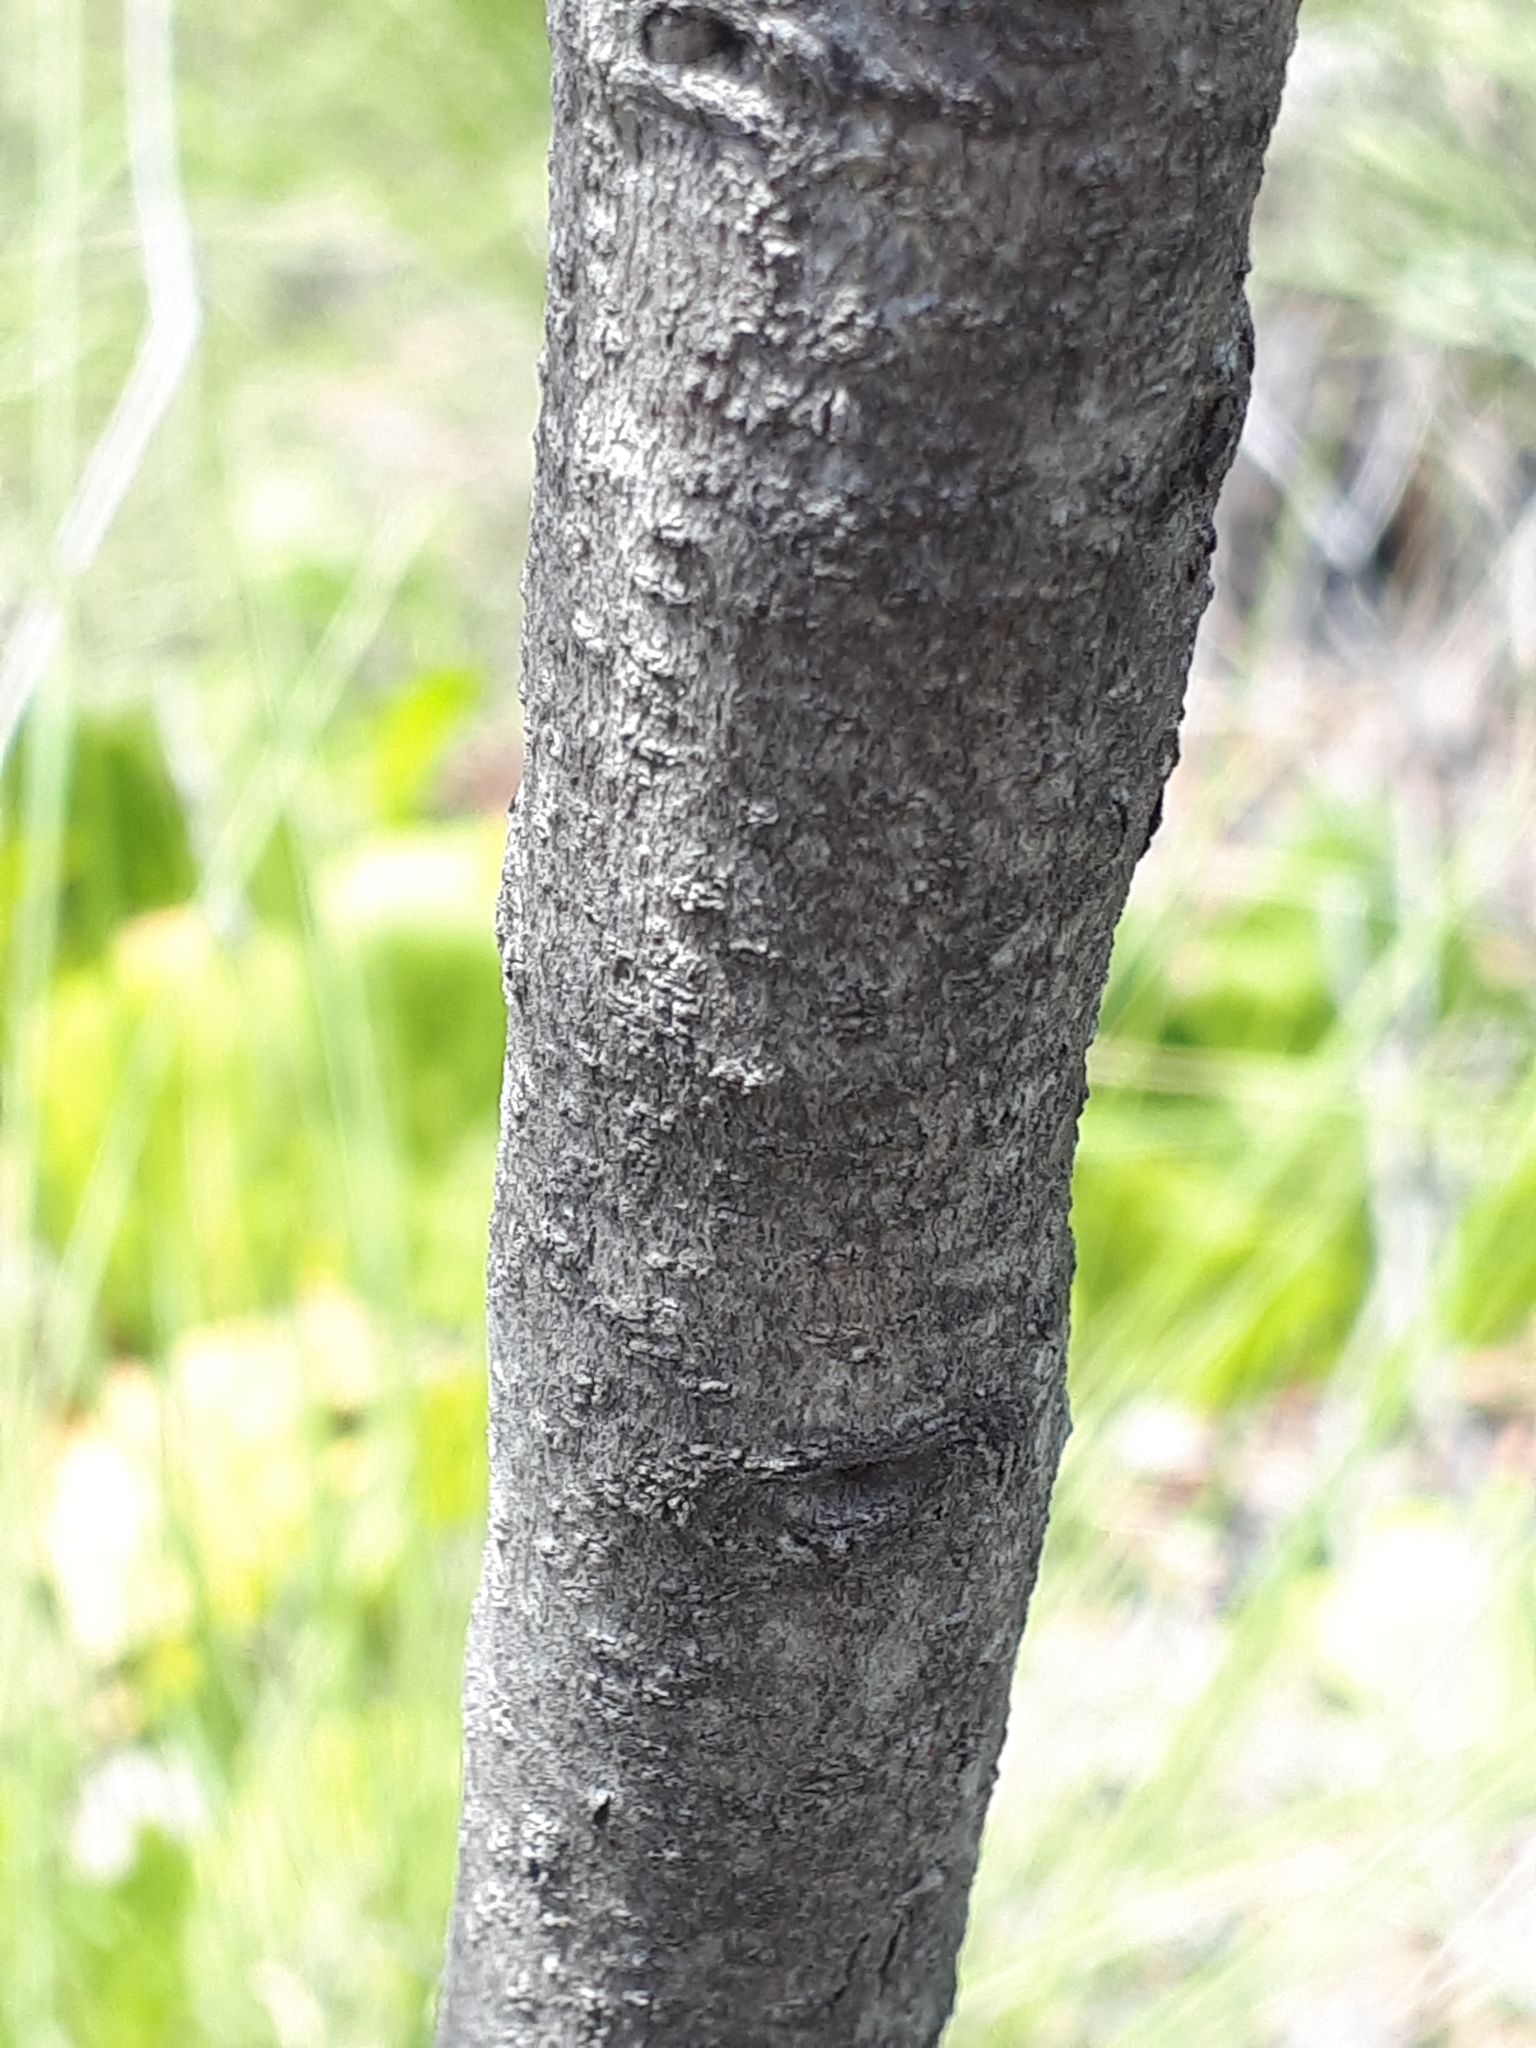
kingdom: Plantae
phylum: Tracheophyta
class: Magnoliopsida
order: Ericales
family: Ebenaceae
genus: Euclea
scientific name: Euclea linearis
